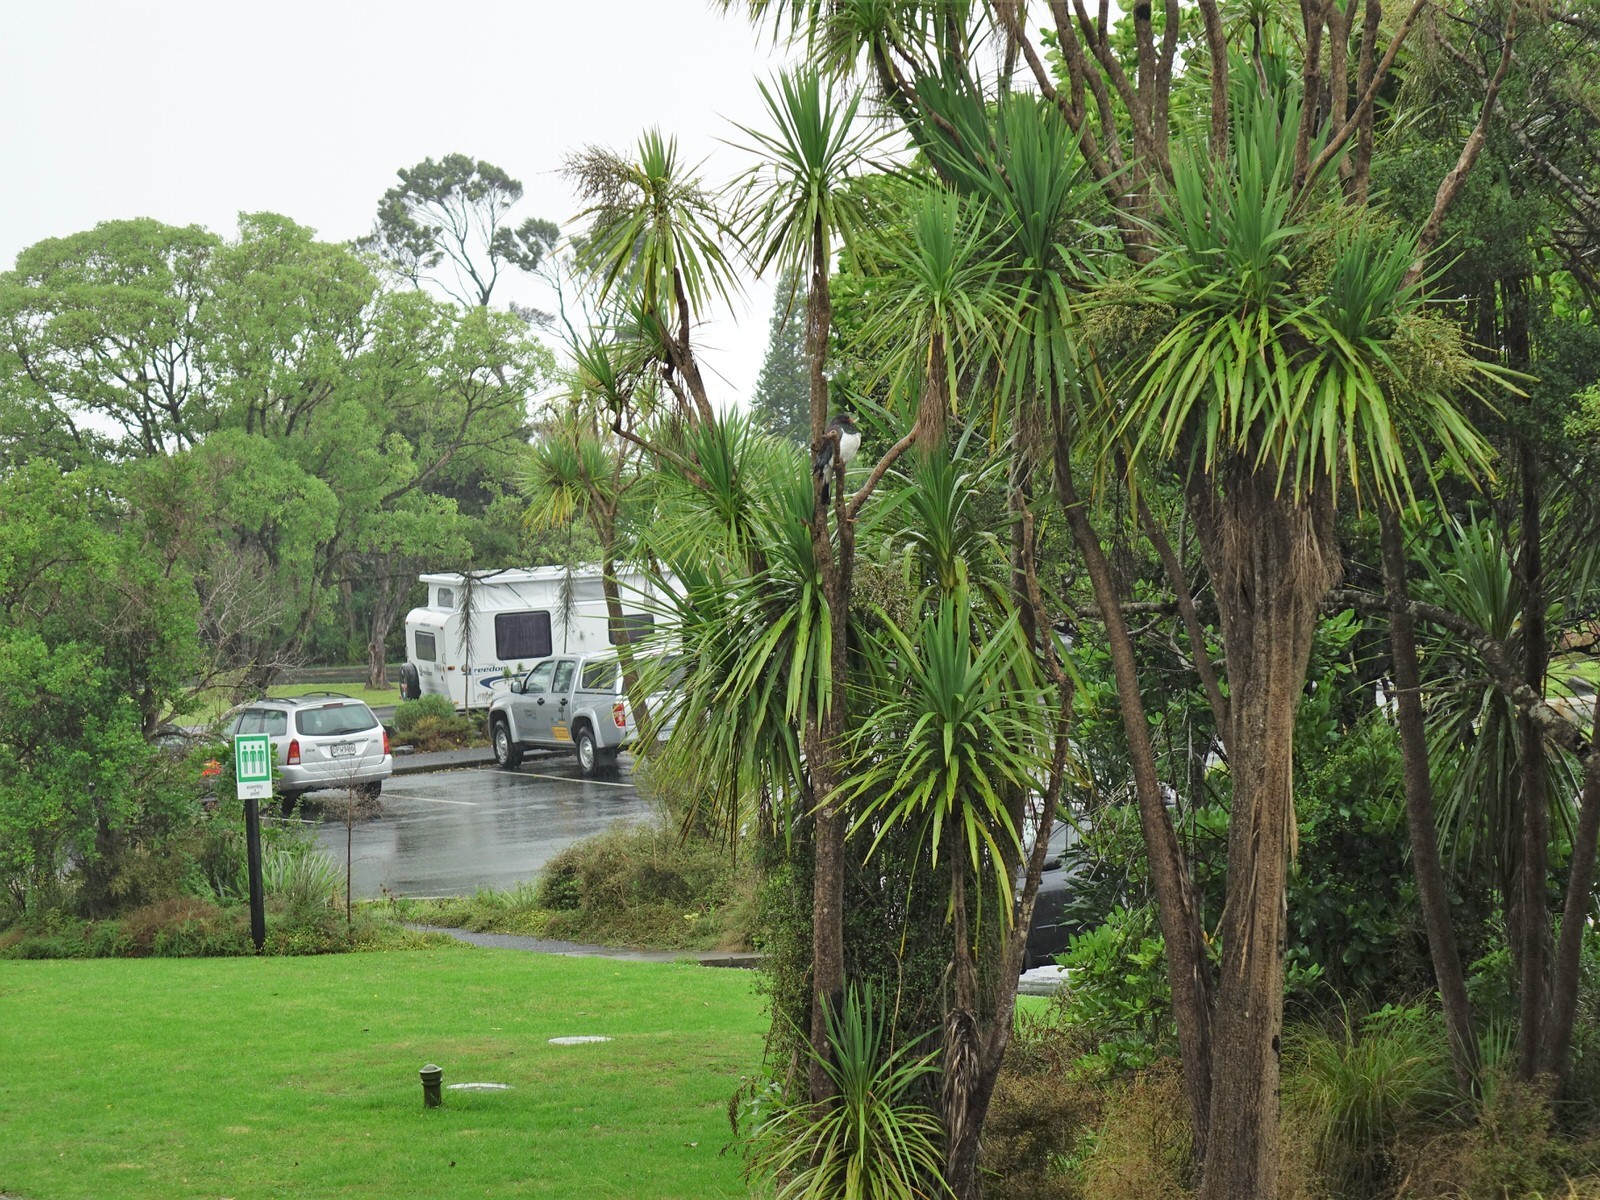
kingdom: Animalia
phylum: Chordata
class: Aves
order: Columbiformes
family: Columbidae
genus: Hemiphaga
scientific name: Hemiphaga novaeseelandiae
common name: New zealand pigeon
